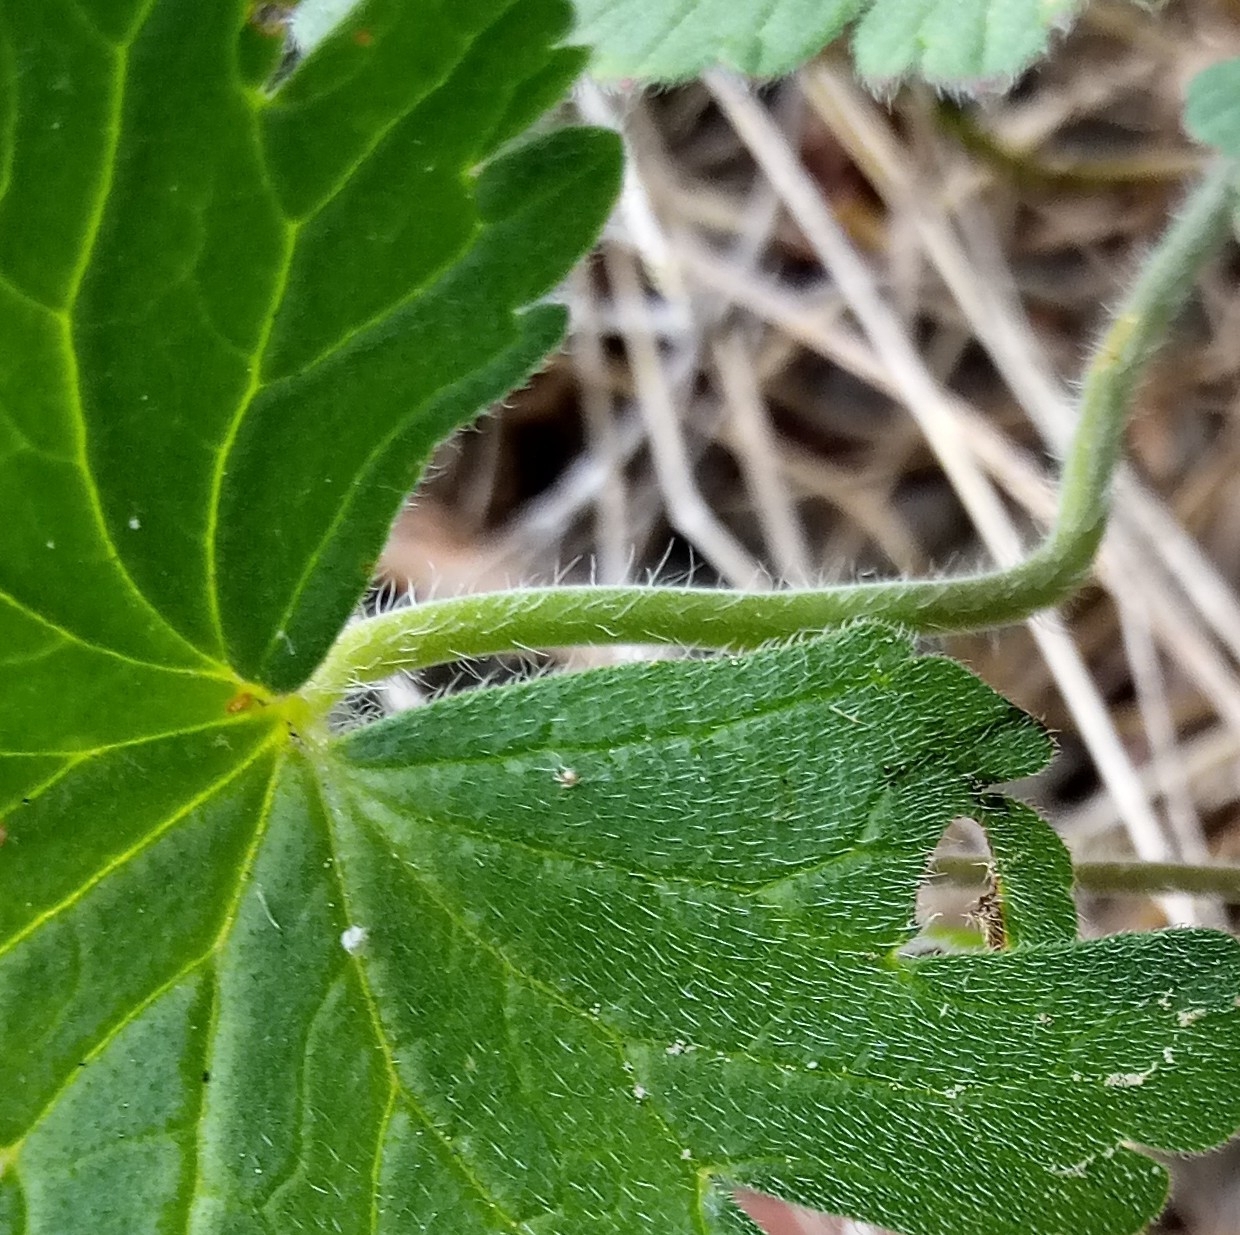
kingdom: Plantae
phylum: Tracheophyta
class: Magnoliopsida
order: Geraniales
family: Geraniaceae
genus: Geranium
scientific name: Geranium pyrenaicum
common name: Hedgerow crane's-bill
